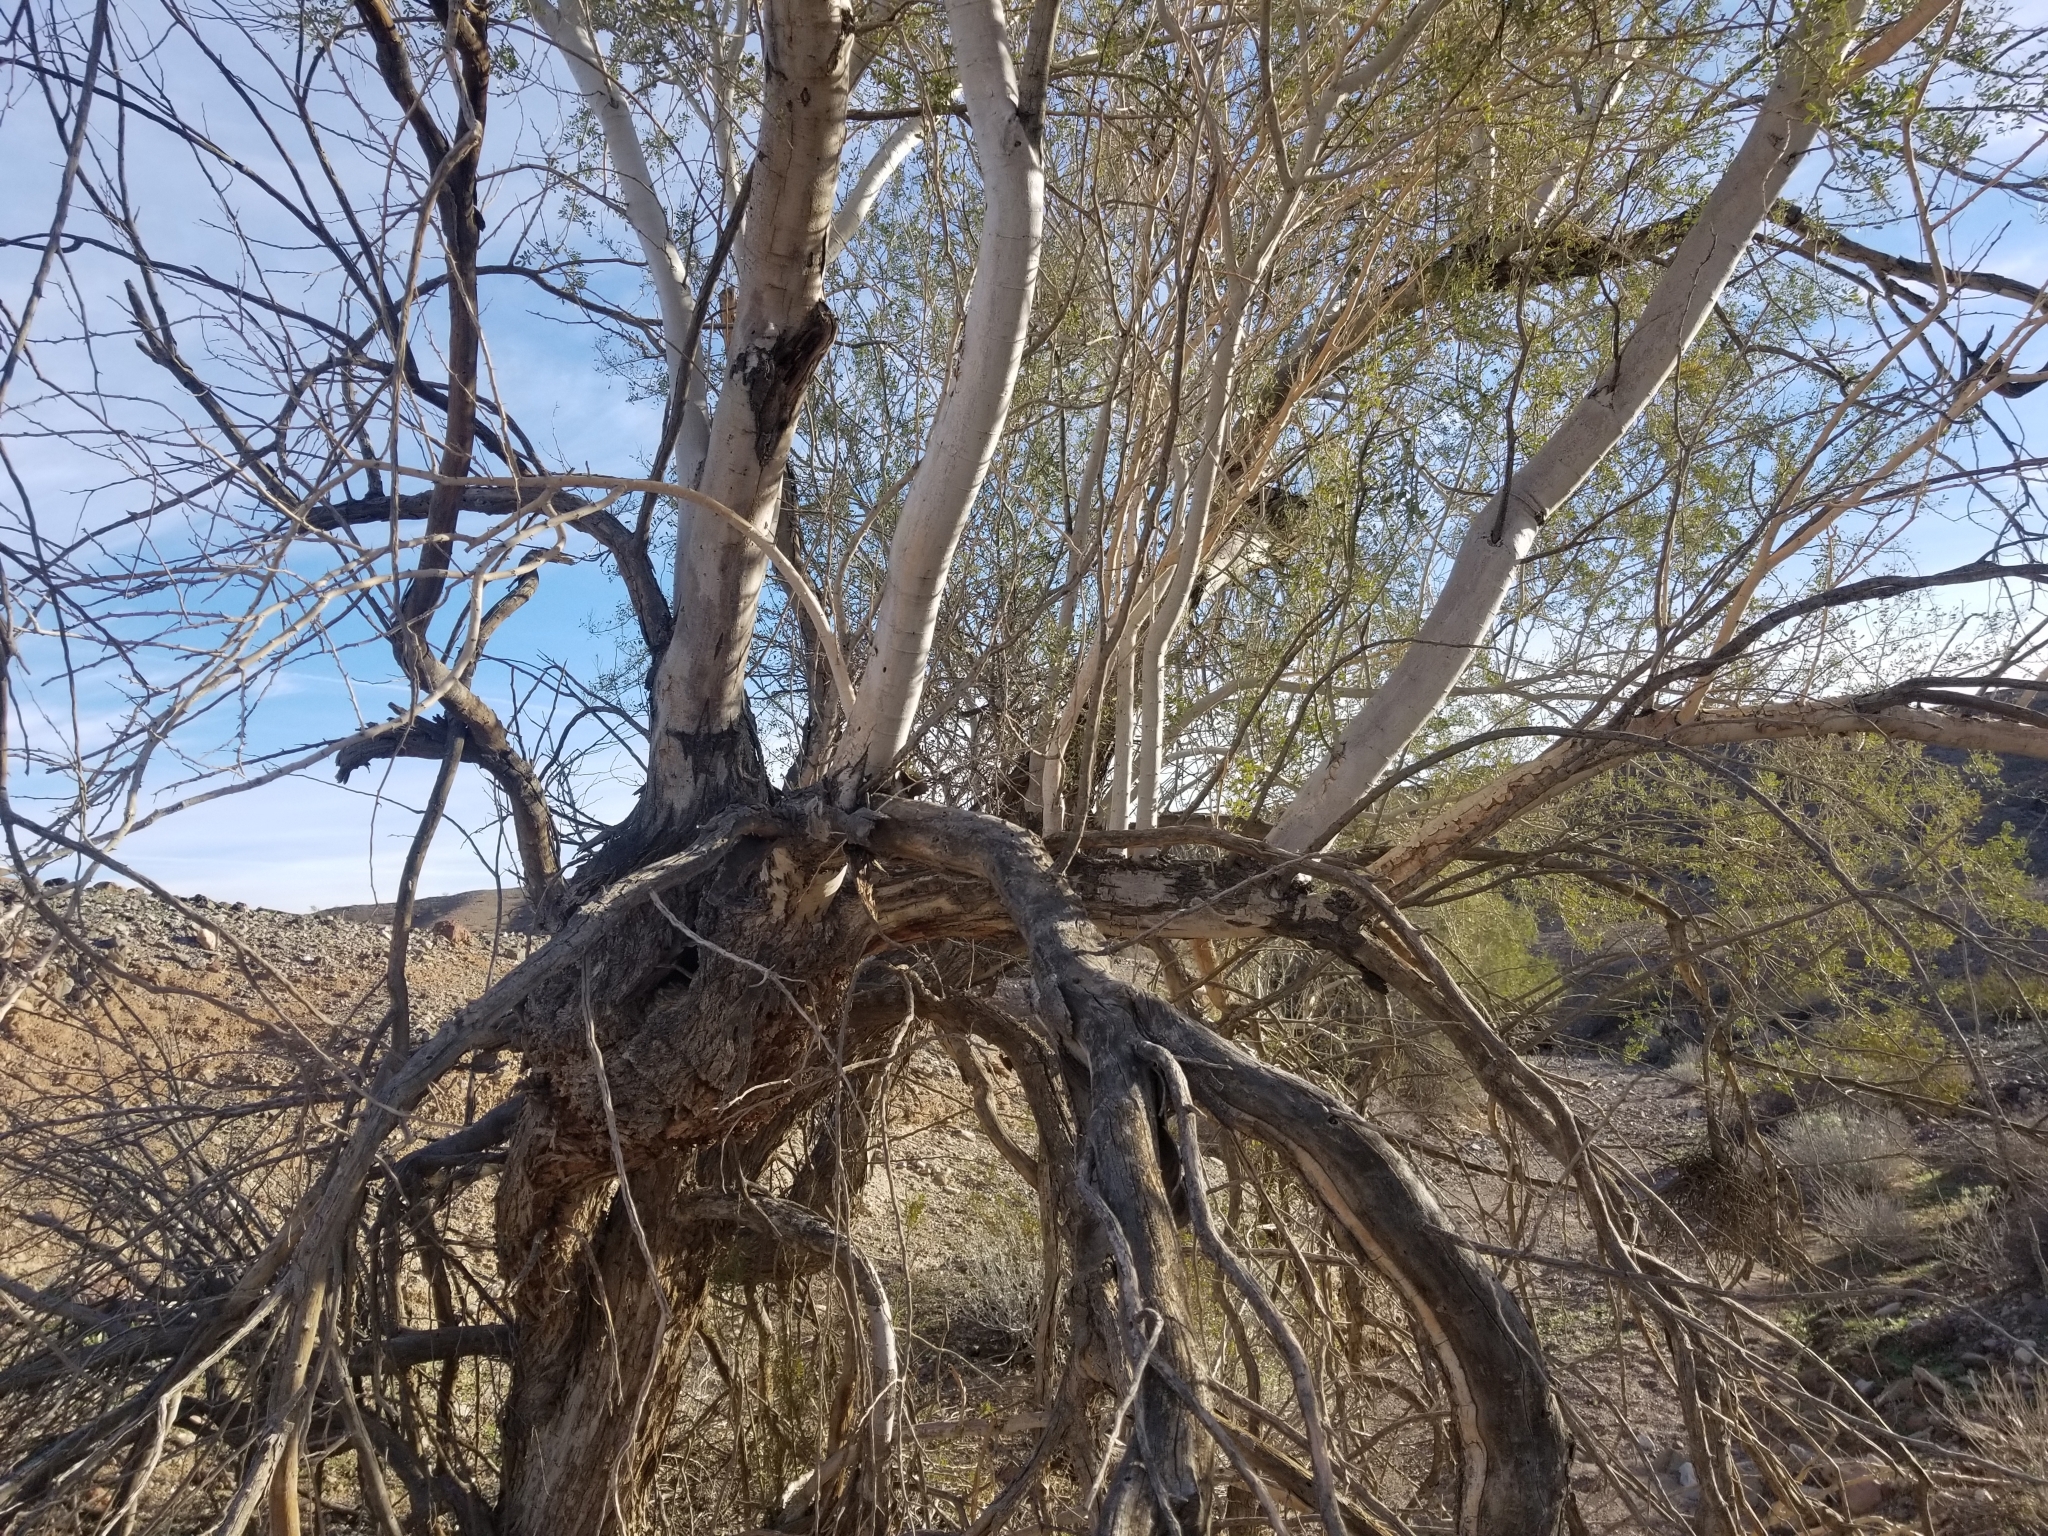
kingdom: Plantae
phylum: Tracheophyta
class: Magnoliopsida
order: Fabales
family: Fabaceae
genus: Olneya
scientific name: Olneya tesota
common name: Desert ironwood
